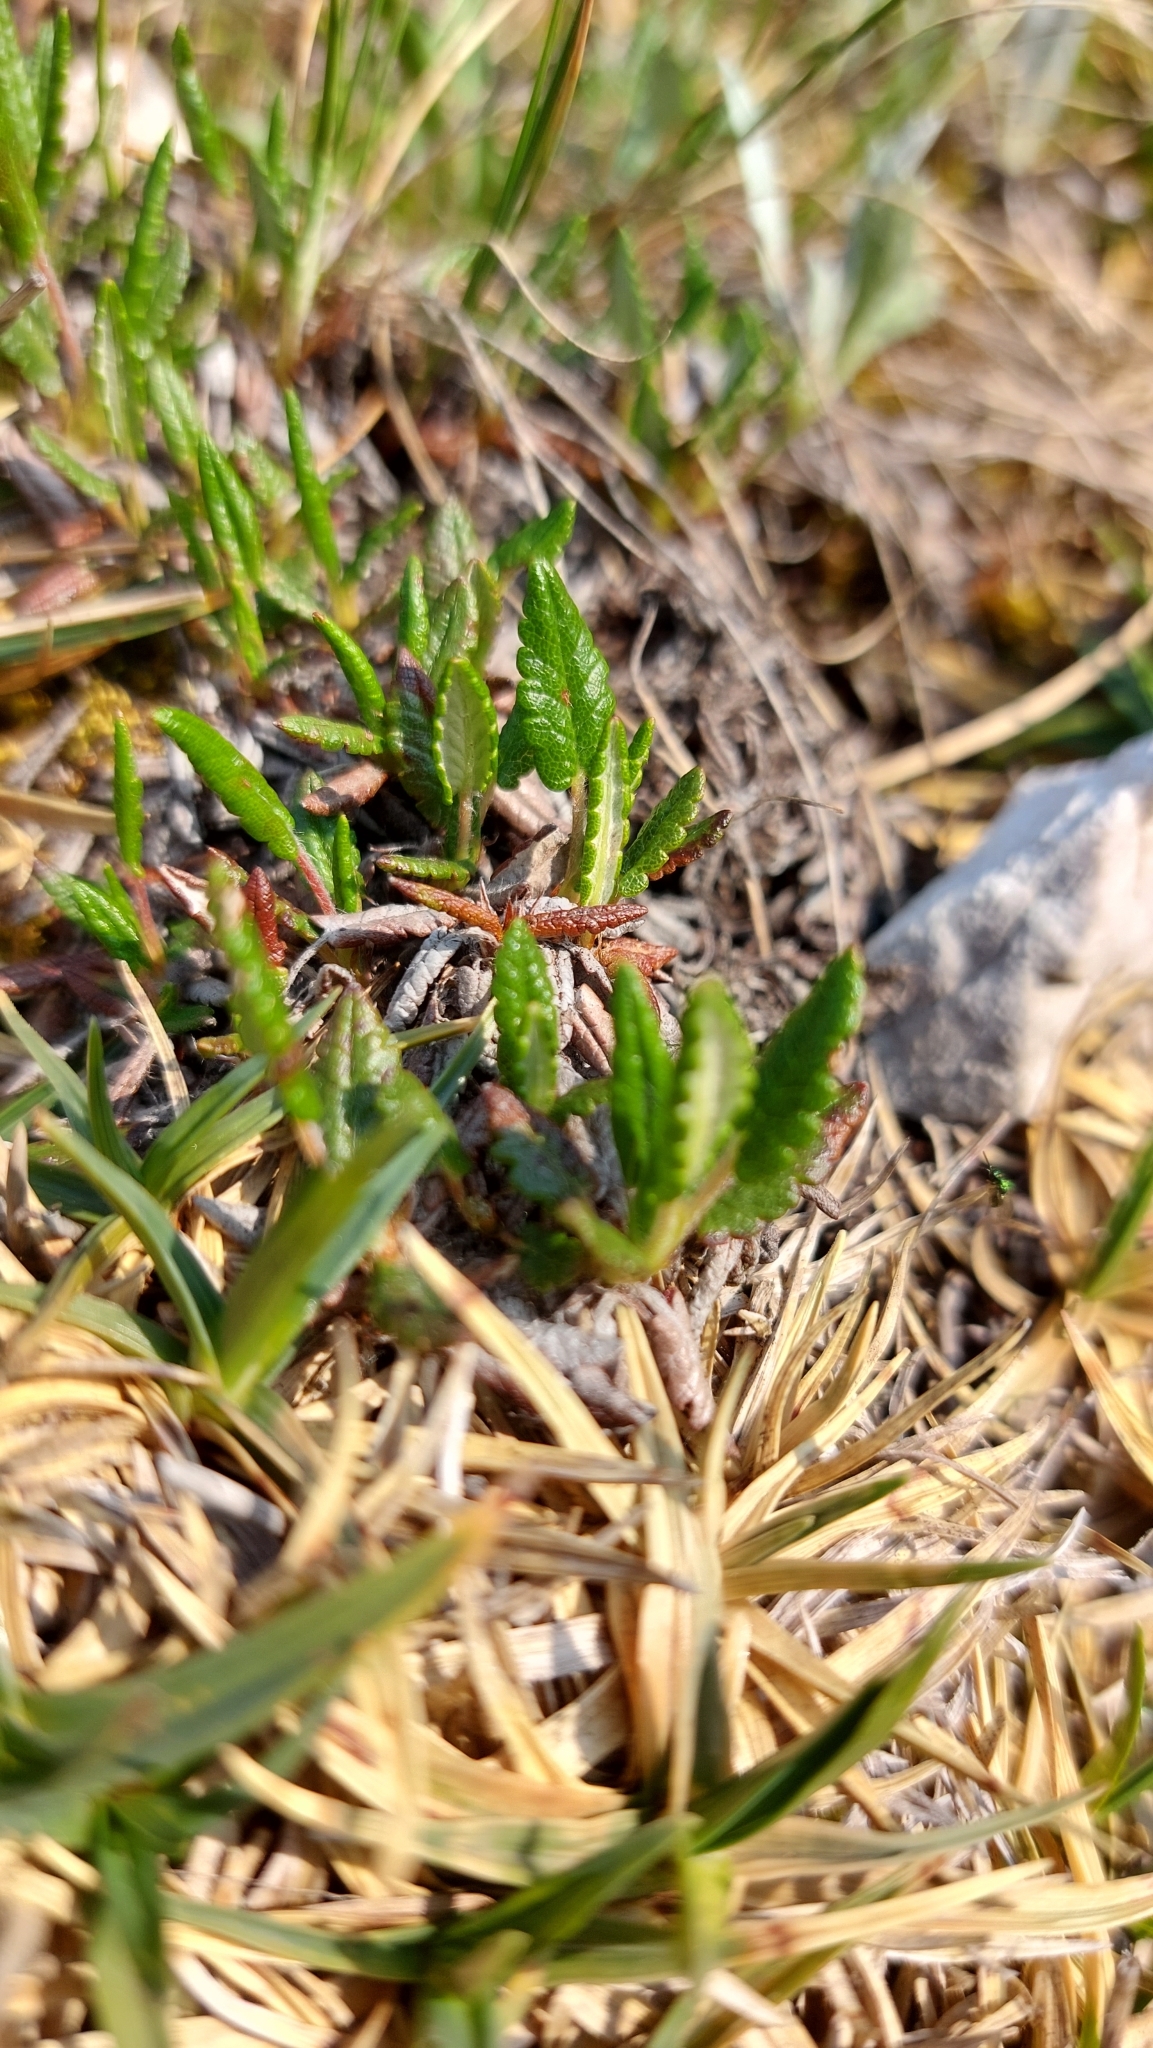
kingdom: Plantae
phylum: Tracheophyta
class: Magnoliopsida
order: Rosales
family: Rosaceae
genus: Dryas
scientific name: Dryas octopetala
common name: Eight-petal mountain-avens
